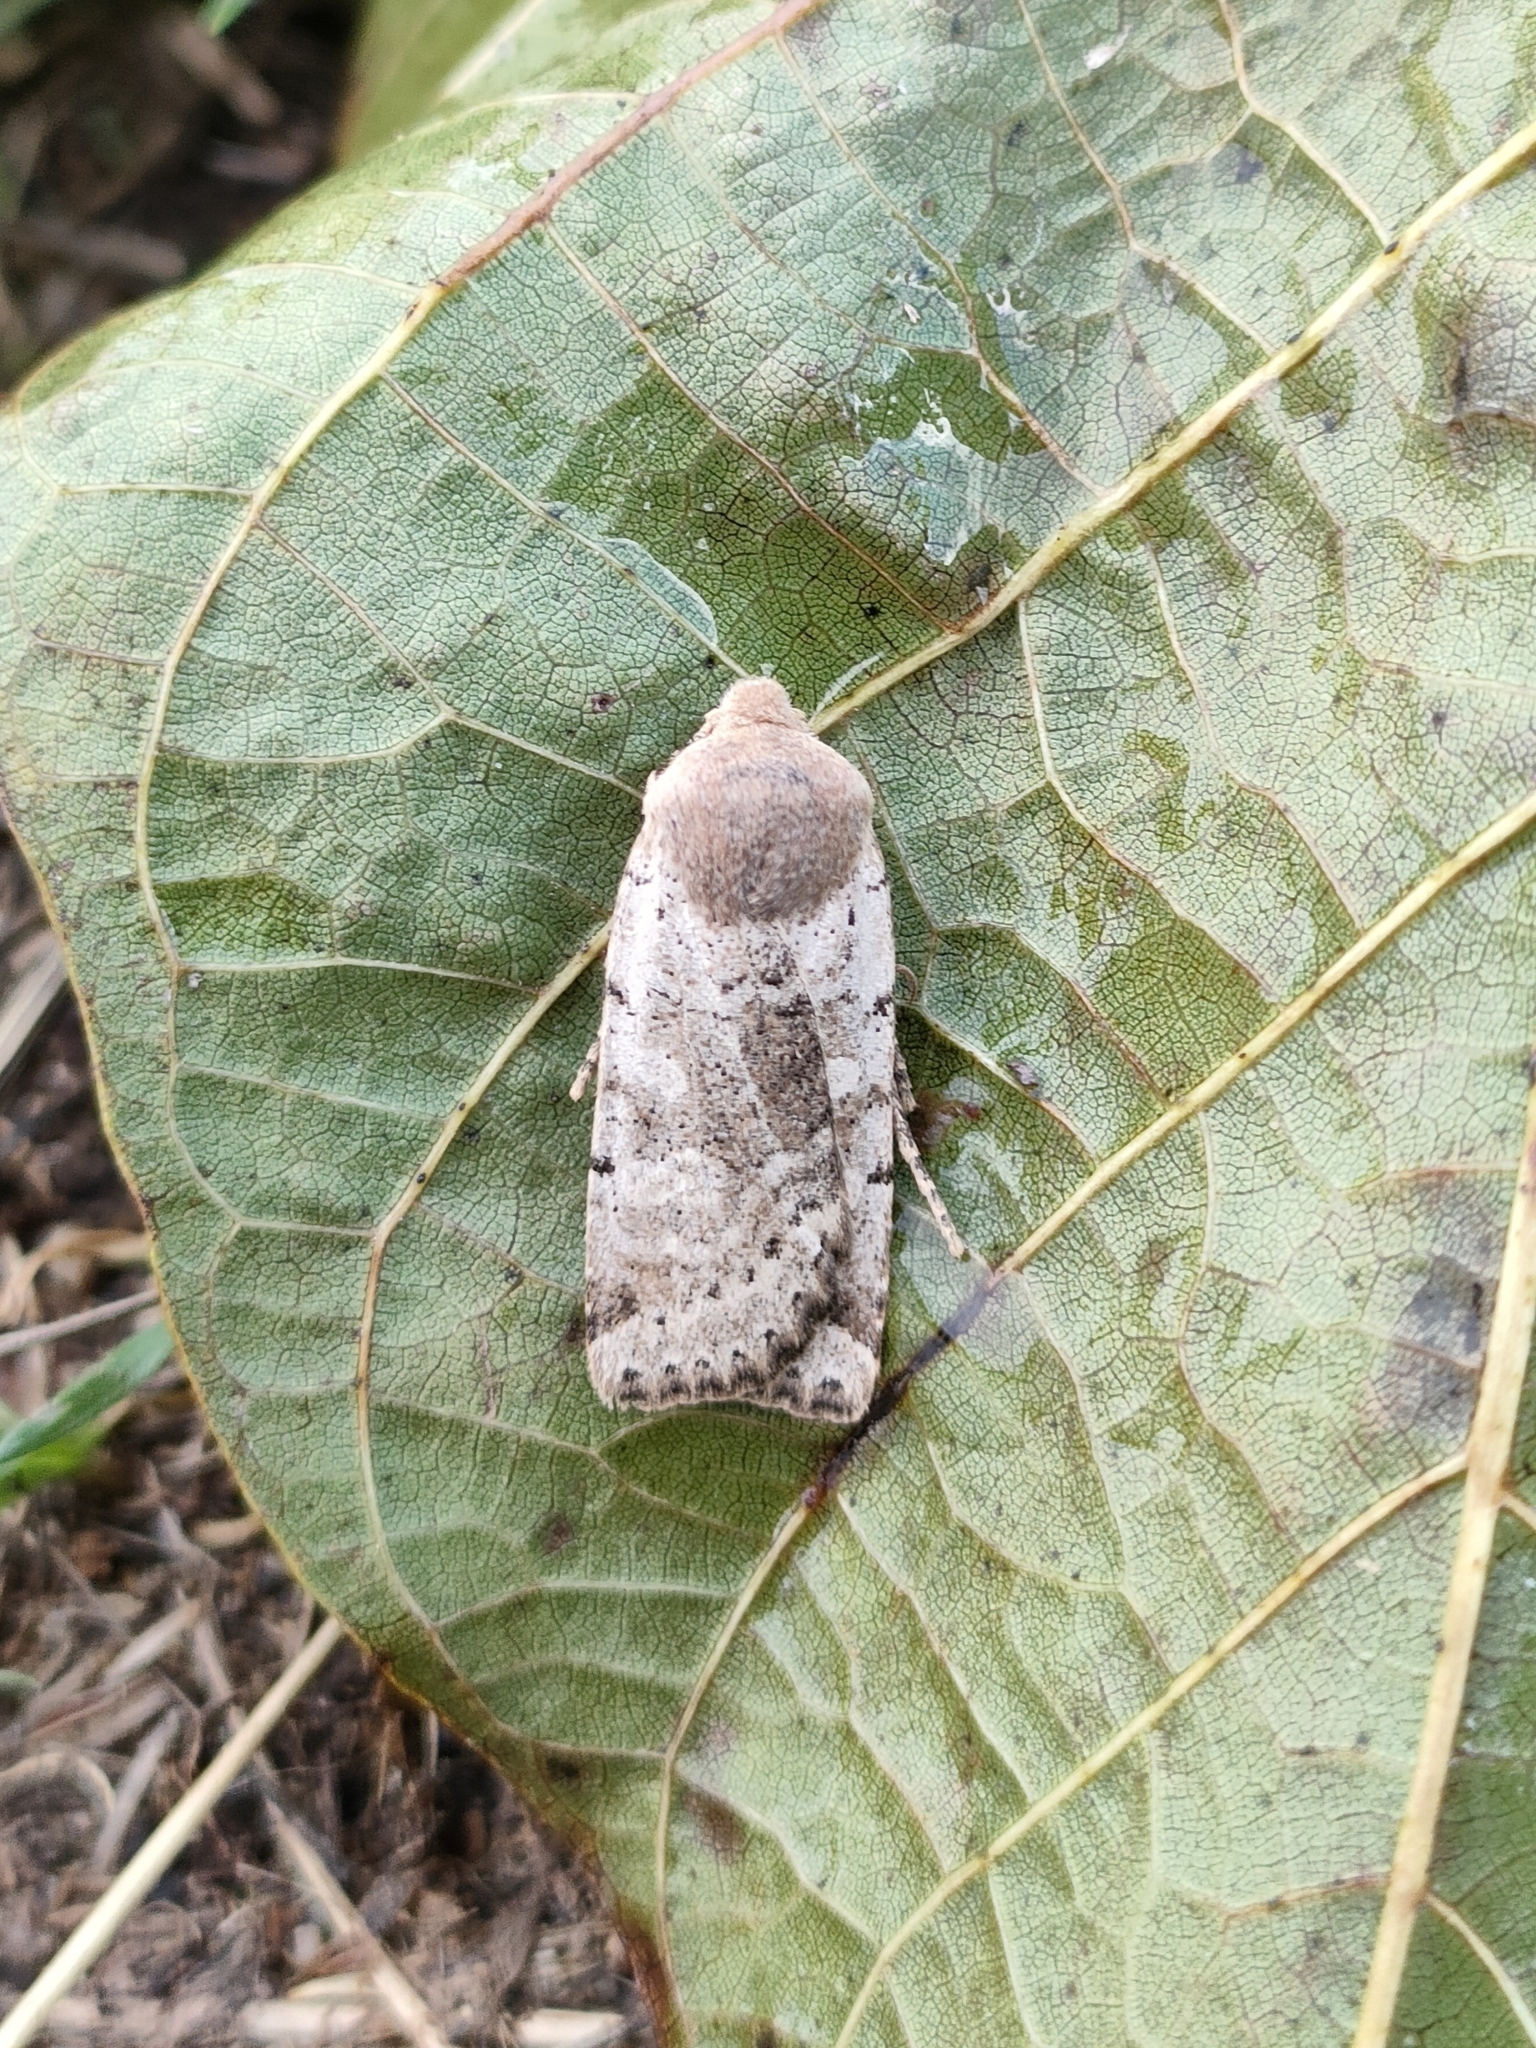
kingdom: Animalia
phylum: Arthropoda
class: Insecta
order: Lepidoptera
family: Noctuidae
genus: Conistra
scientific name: Conistra daubei
